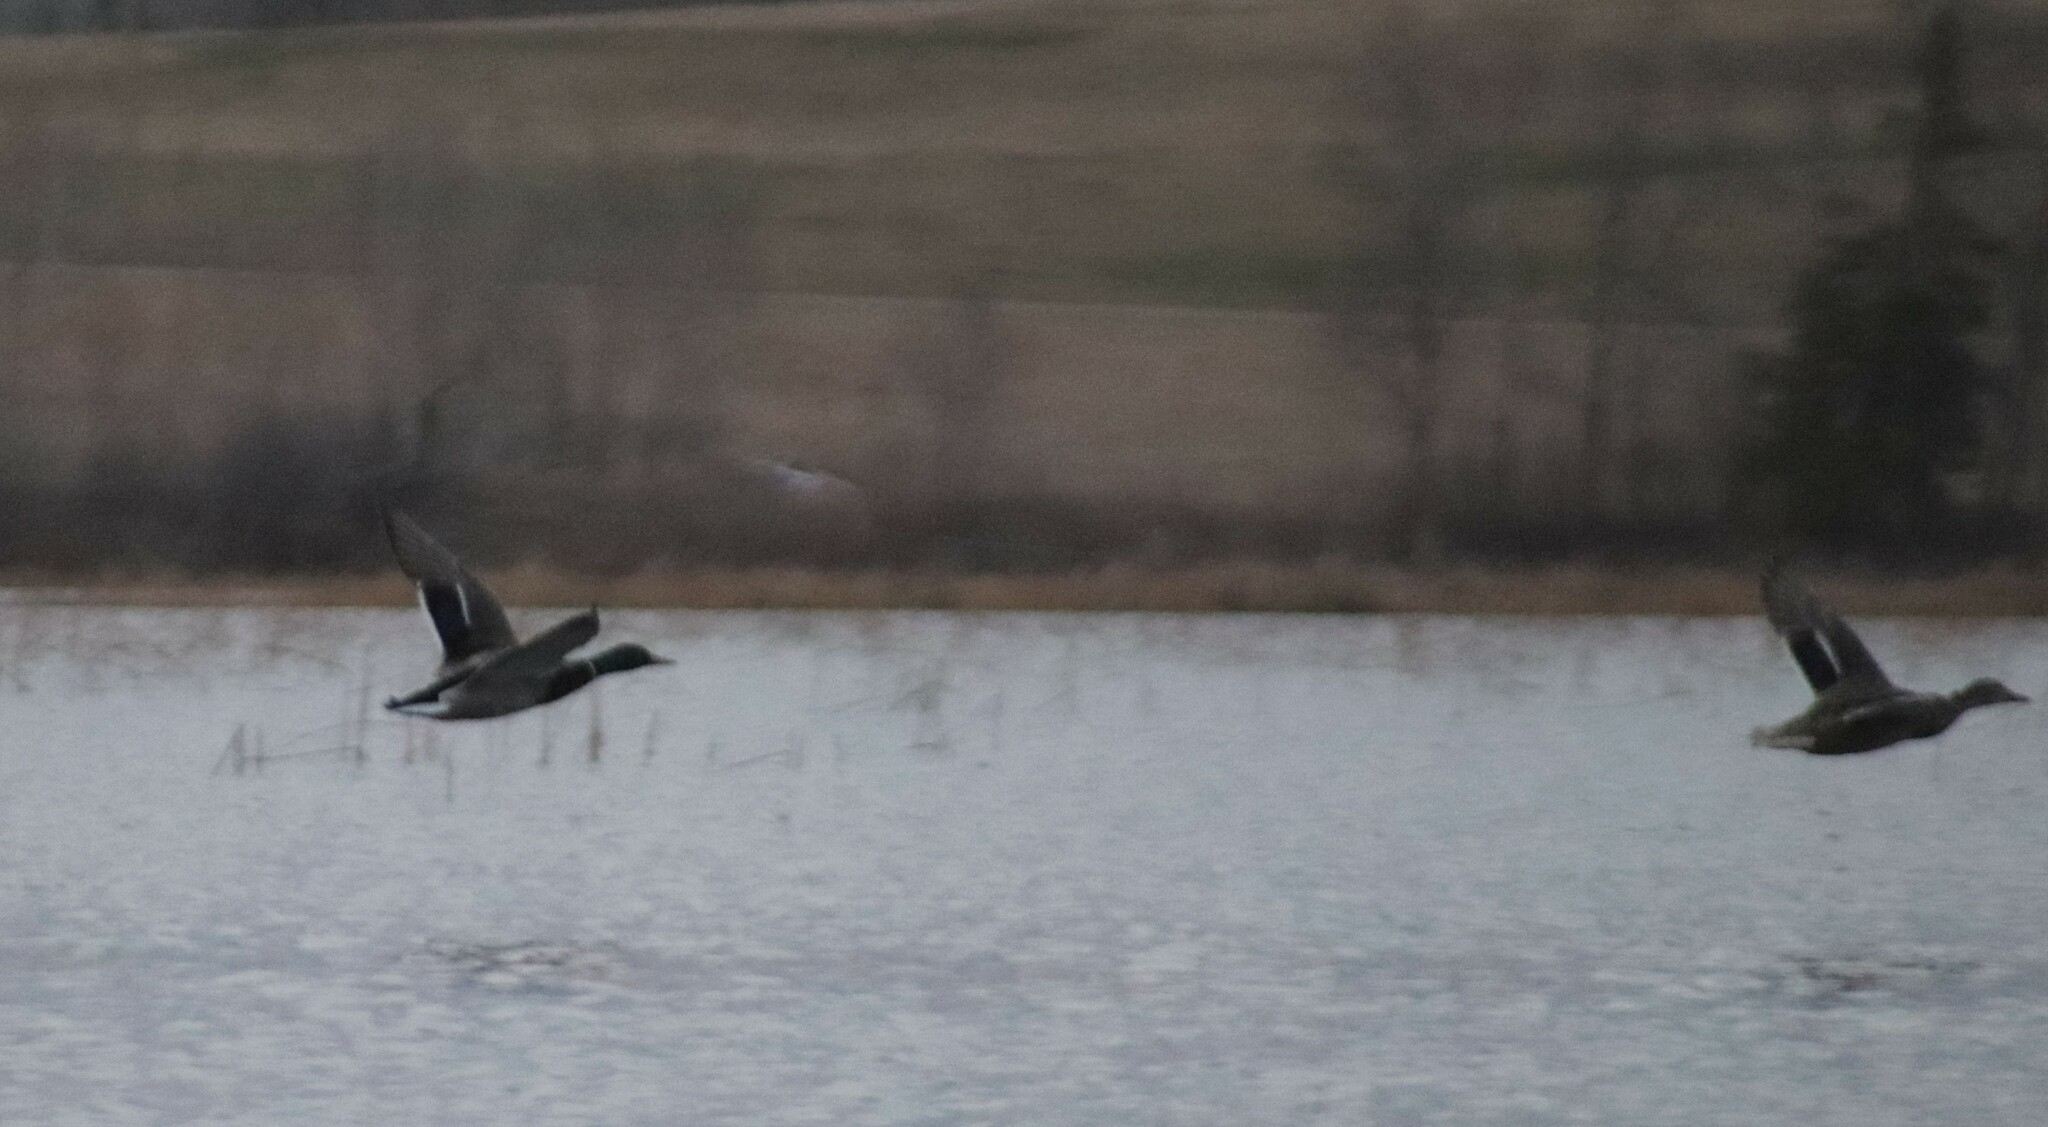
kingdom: Animalia
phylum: Chordata
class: Aves
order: Anseriformes
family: Anatidae
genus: Anas
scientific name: Anas platyrhynchos
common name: Mallard
